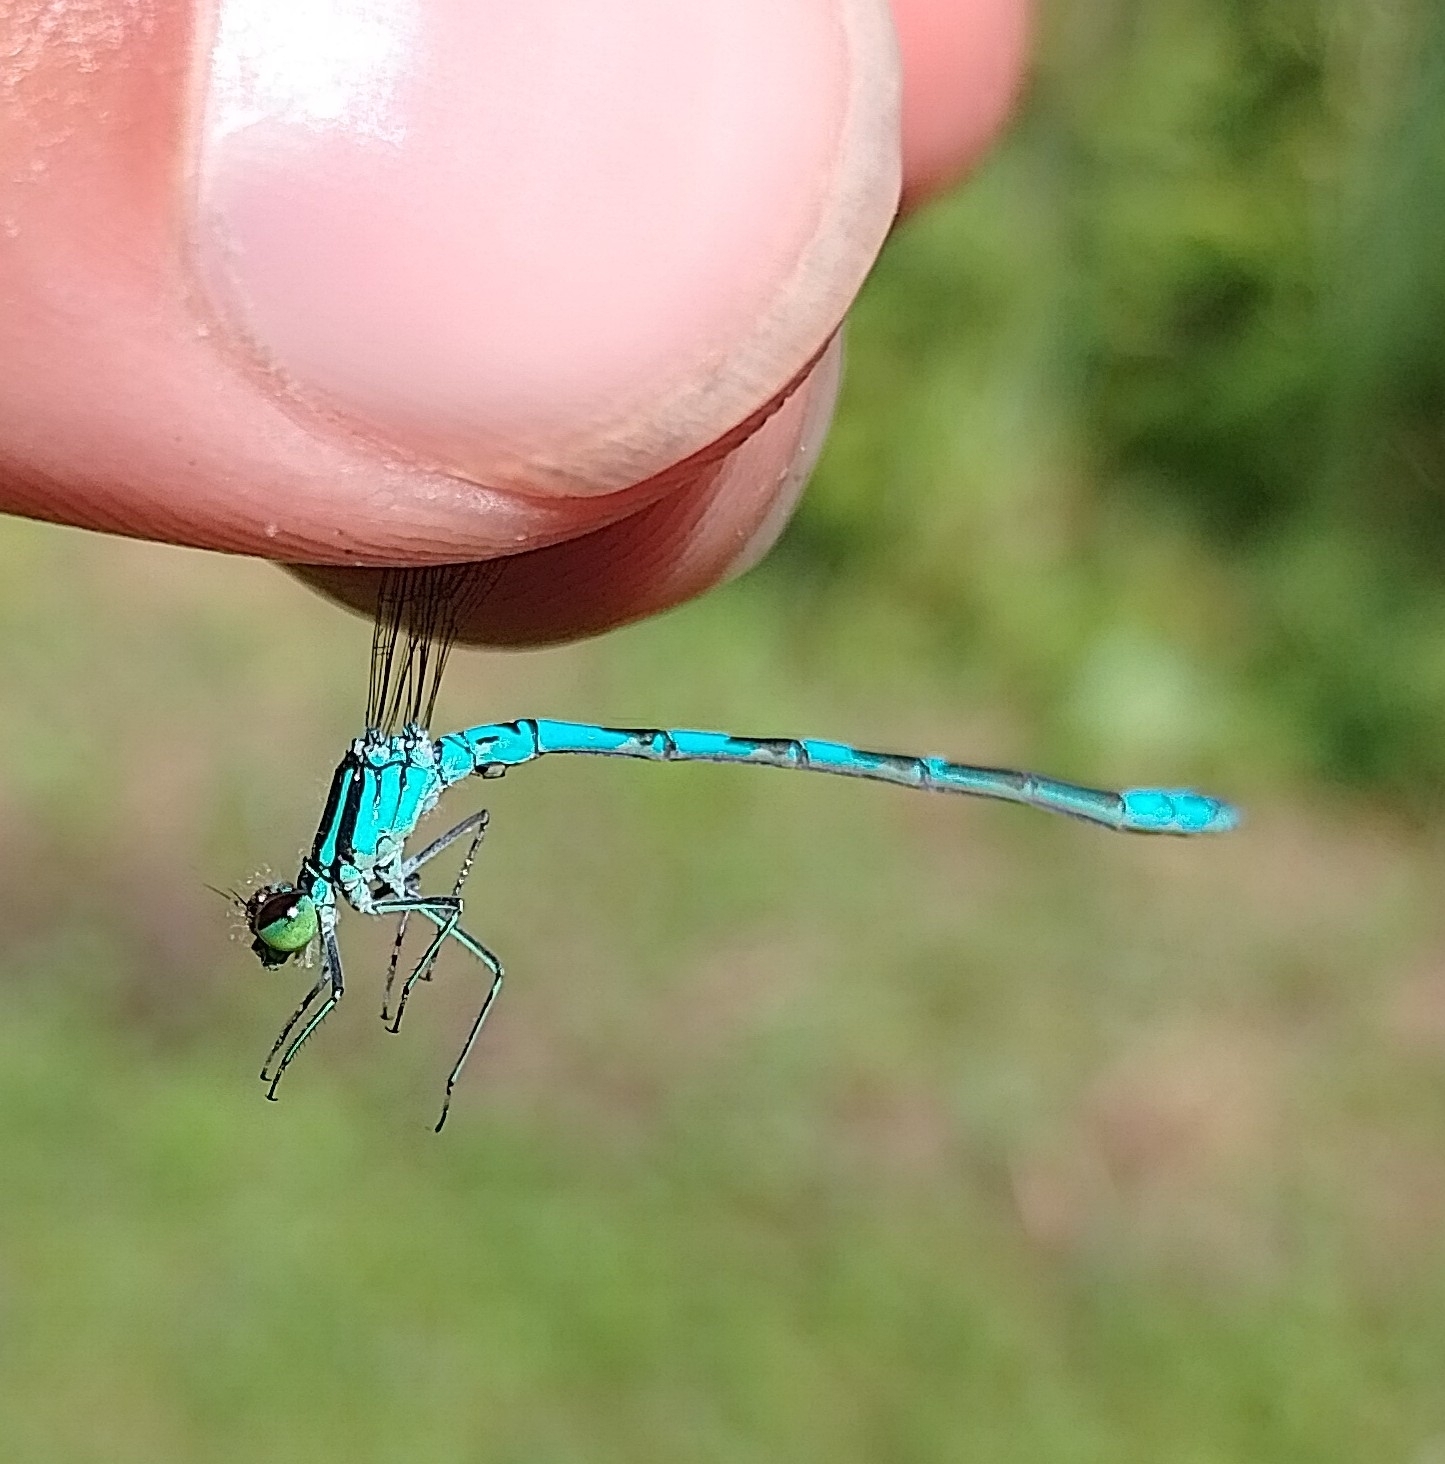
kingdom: Animalia
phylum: Arthropoda
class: Insecta
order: Odonata
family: Coenagrionidae
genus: Coenagrion
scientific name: Coenagrion hastulatum
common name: Spearhead bluet
